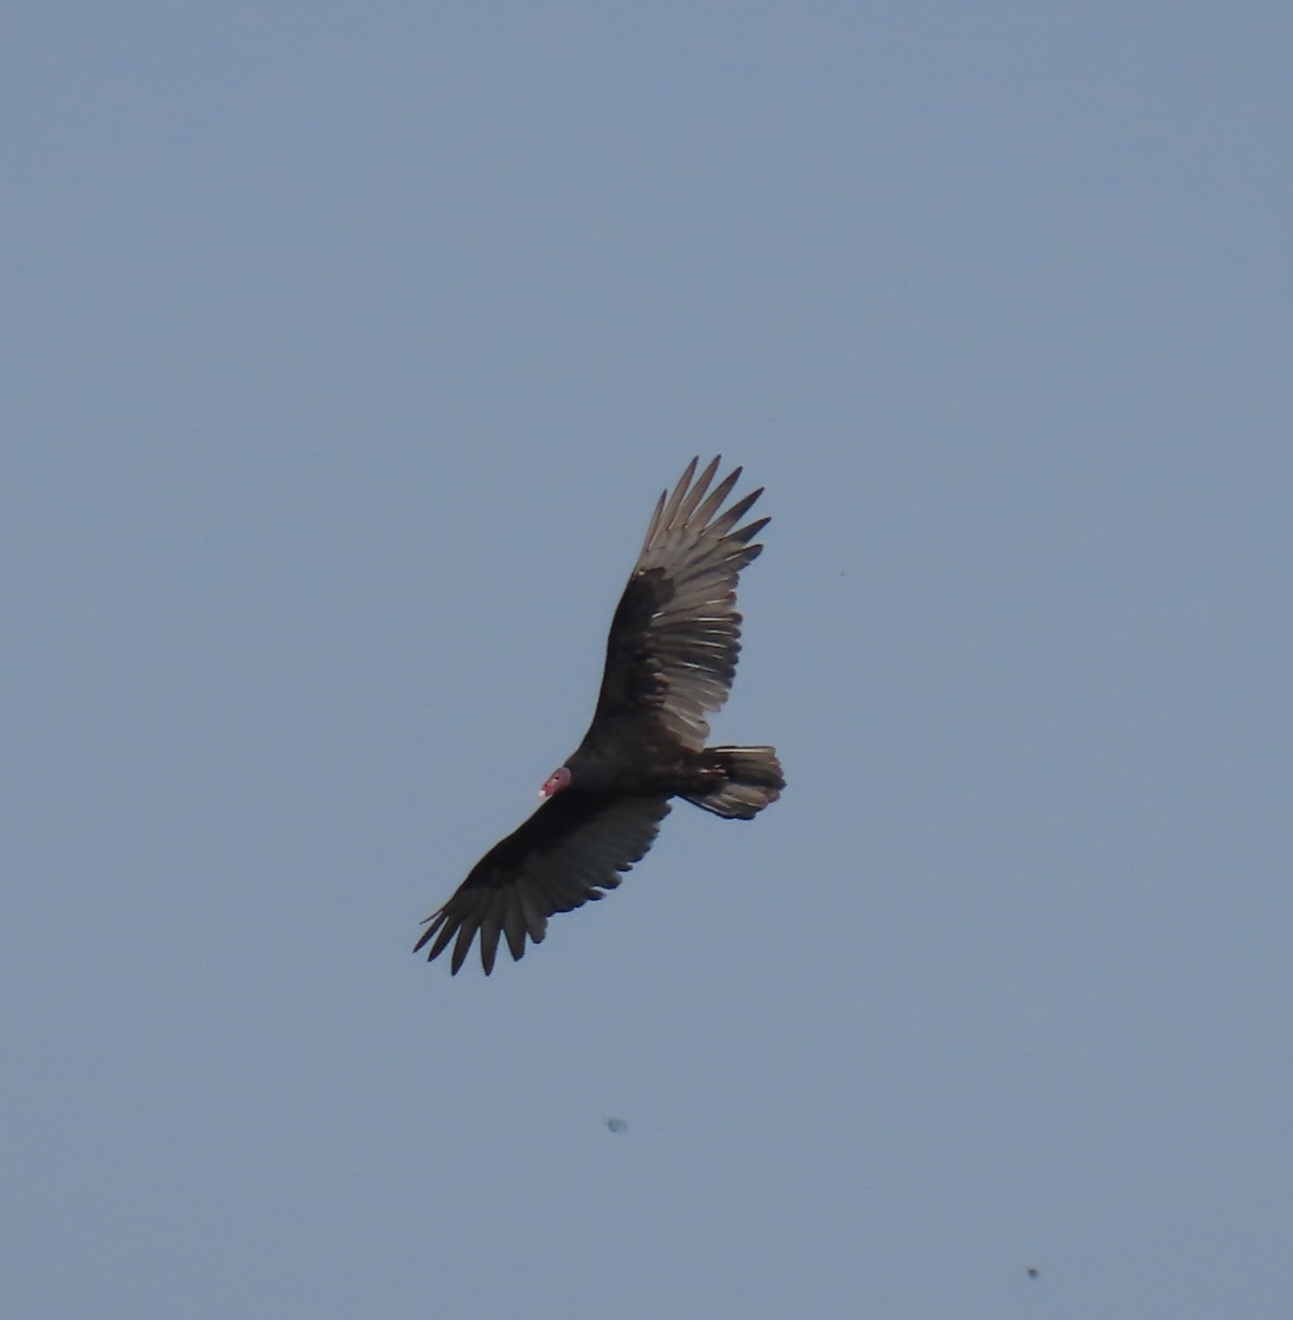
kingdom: Animalia
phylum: Chordata
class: Aves
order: Accipitriformes
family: Cathartidae
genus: Cathartes
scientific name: Cathartes aura
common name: Turkey vulture
